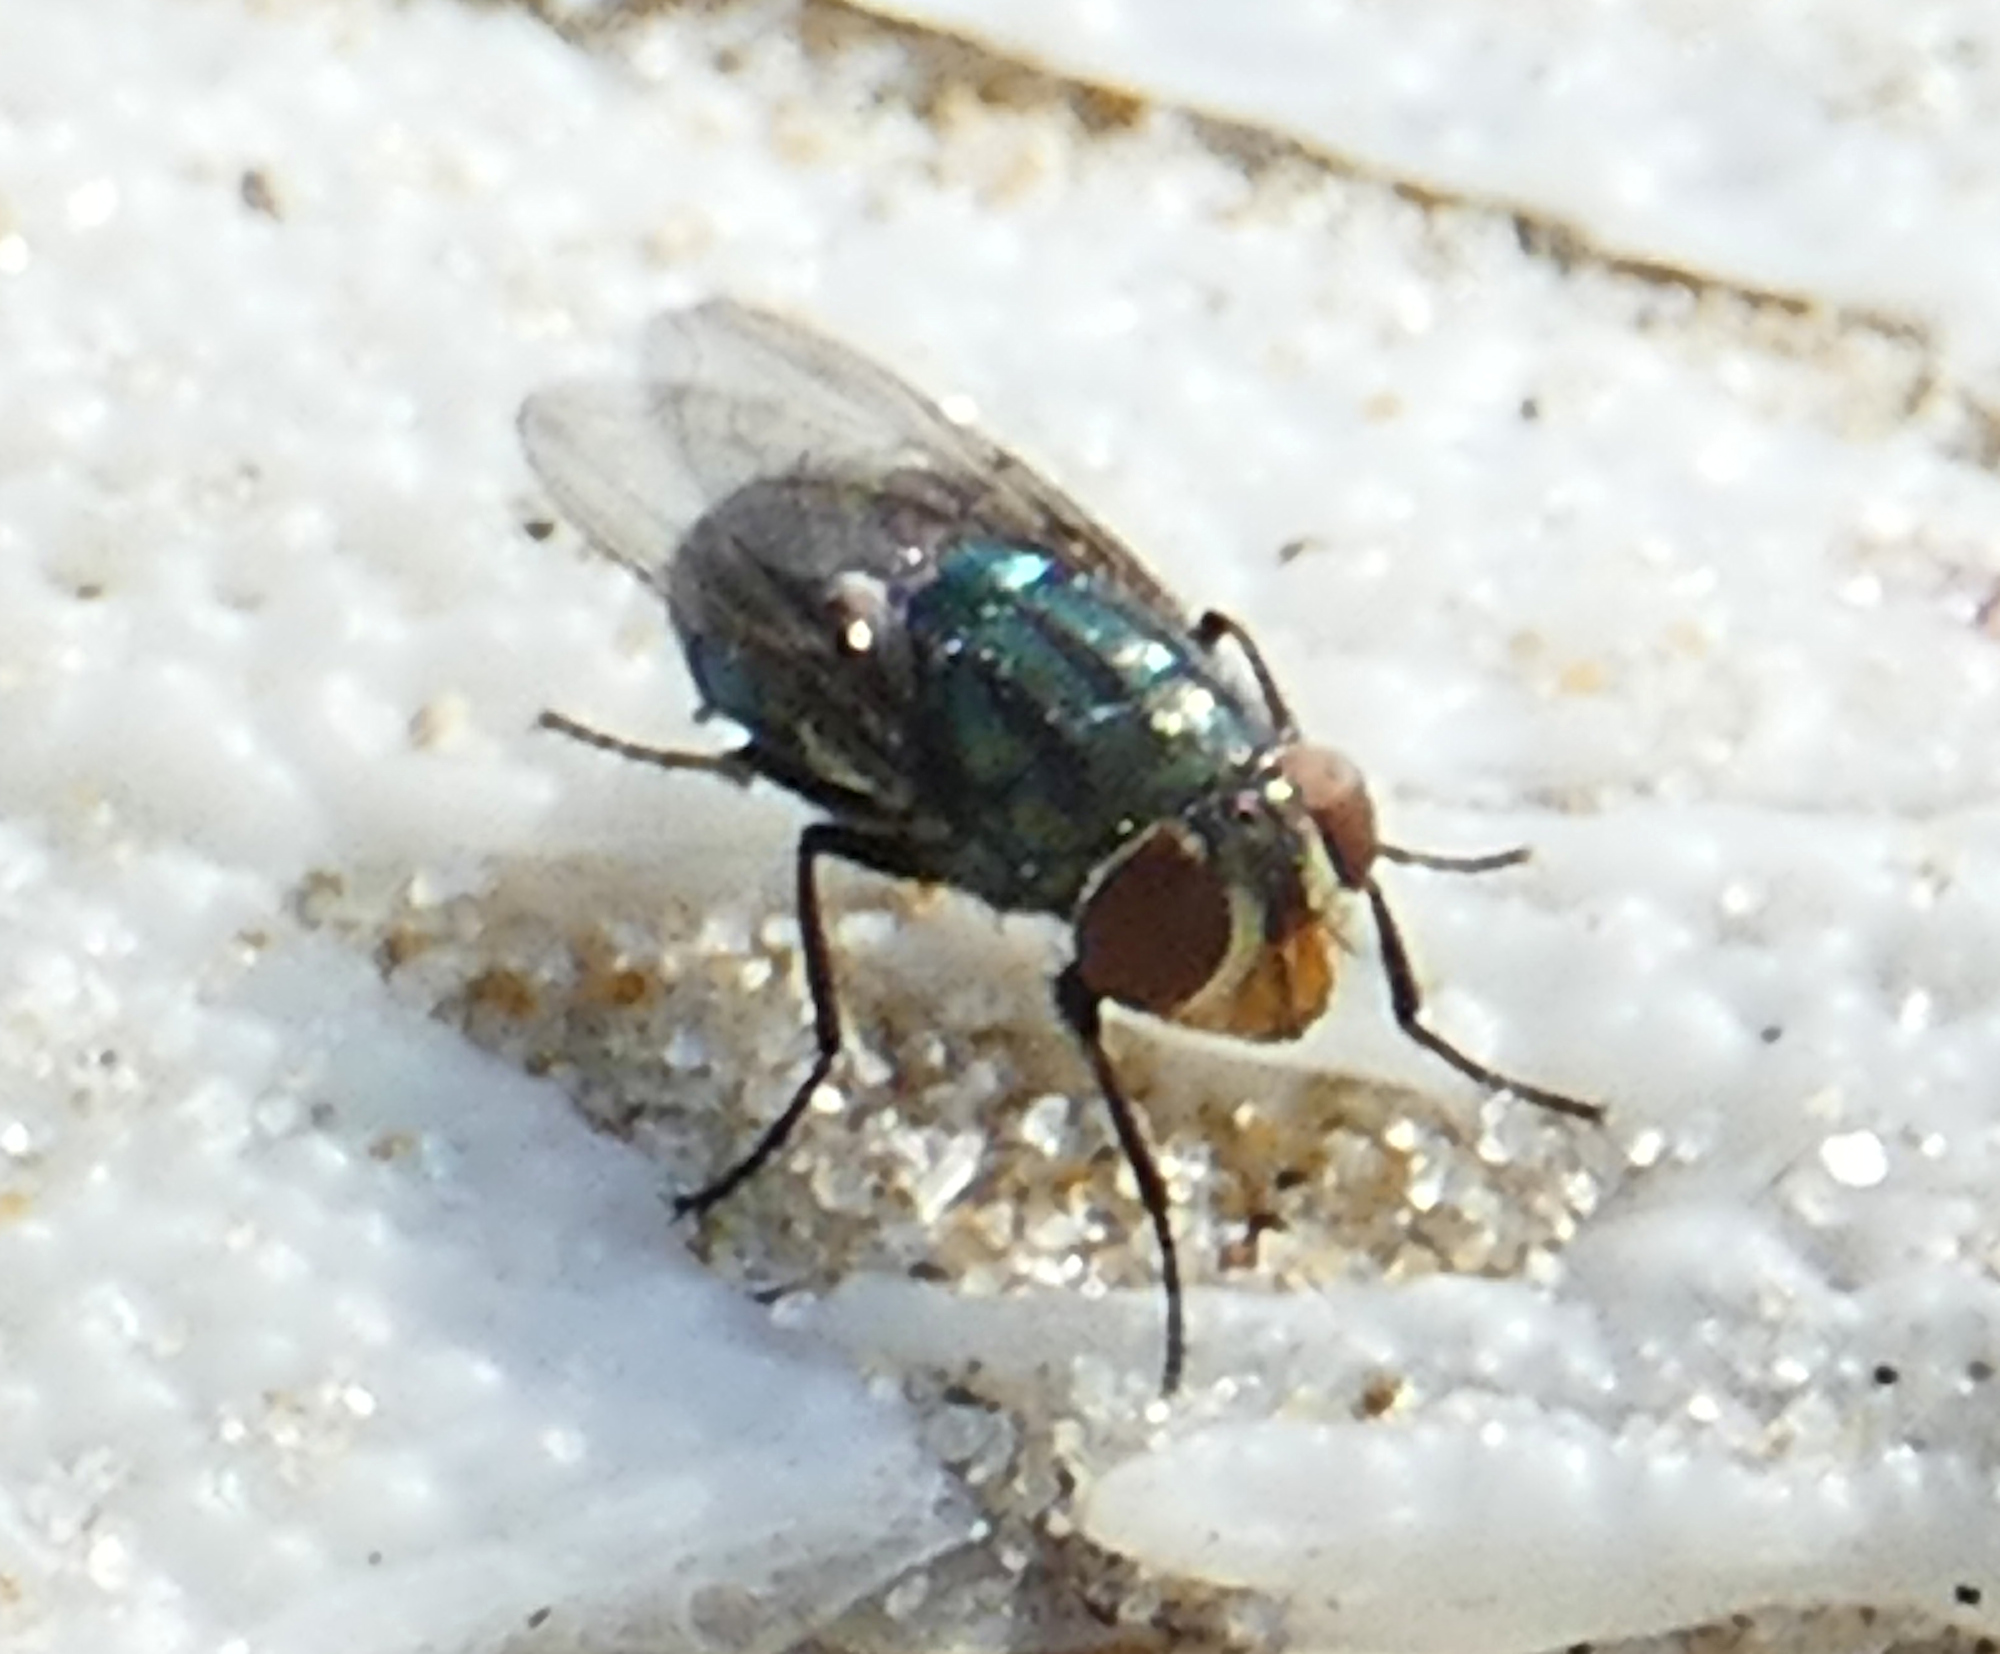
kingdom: Animalia
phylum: Arthropoda
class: Insecta
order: Diptera
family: Calliphoridae
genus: Cochliomyia
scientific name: Cochliomyia macellaria
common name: Secondary screwworm
